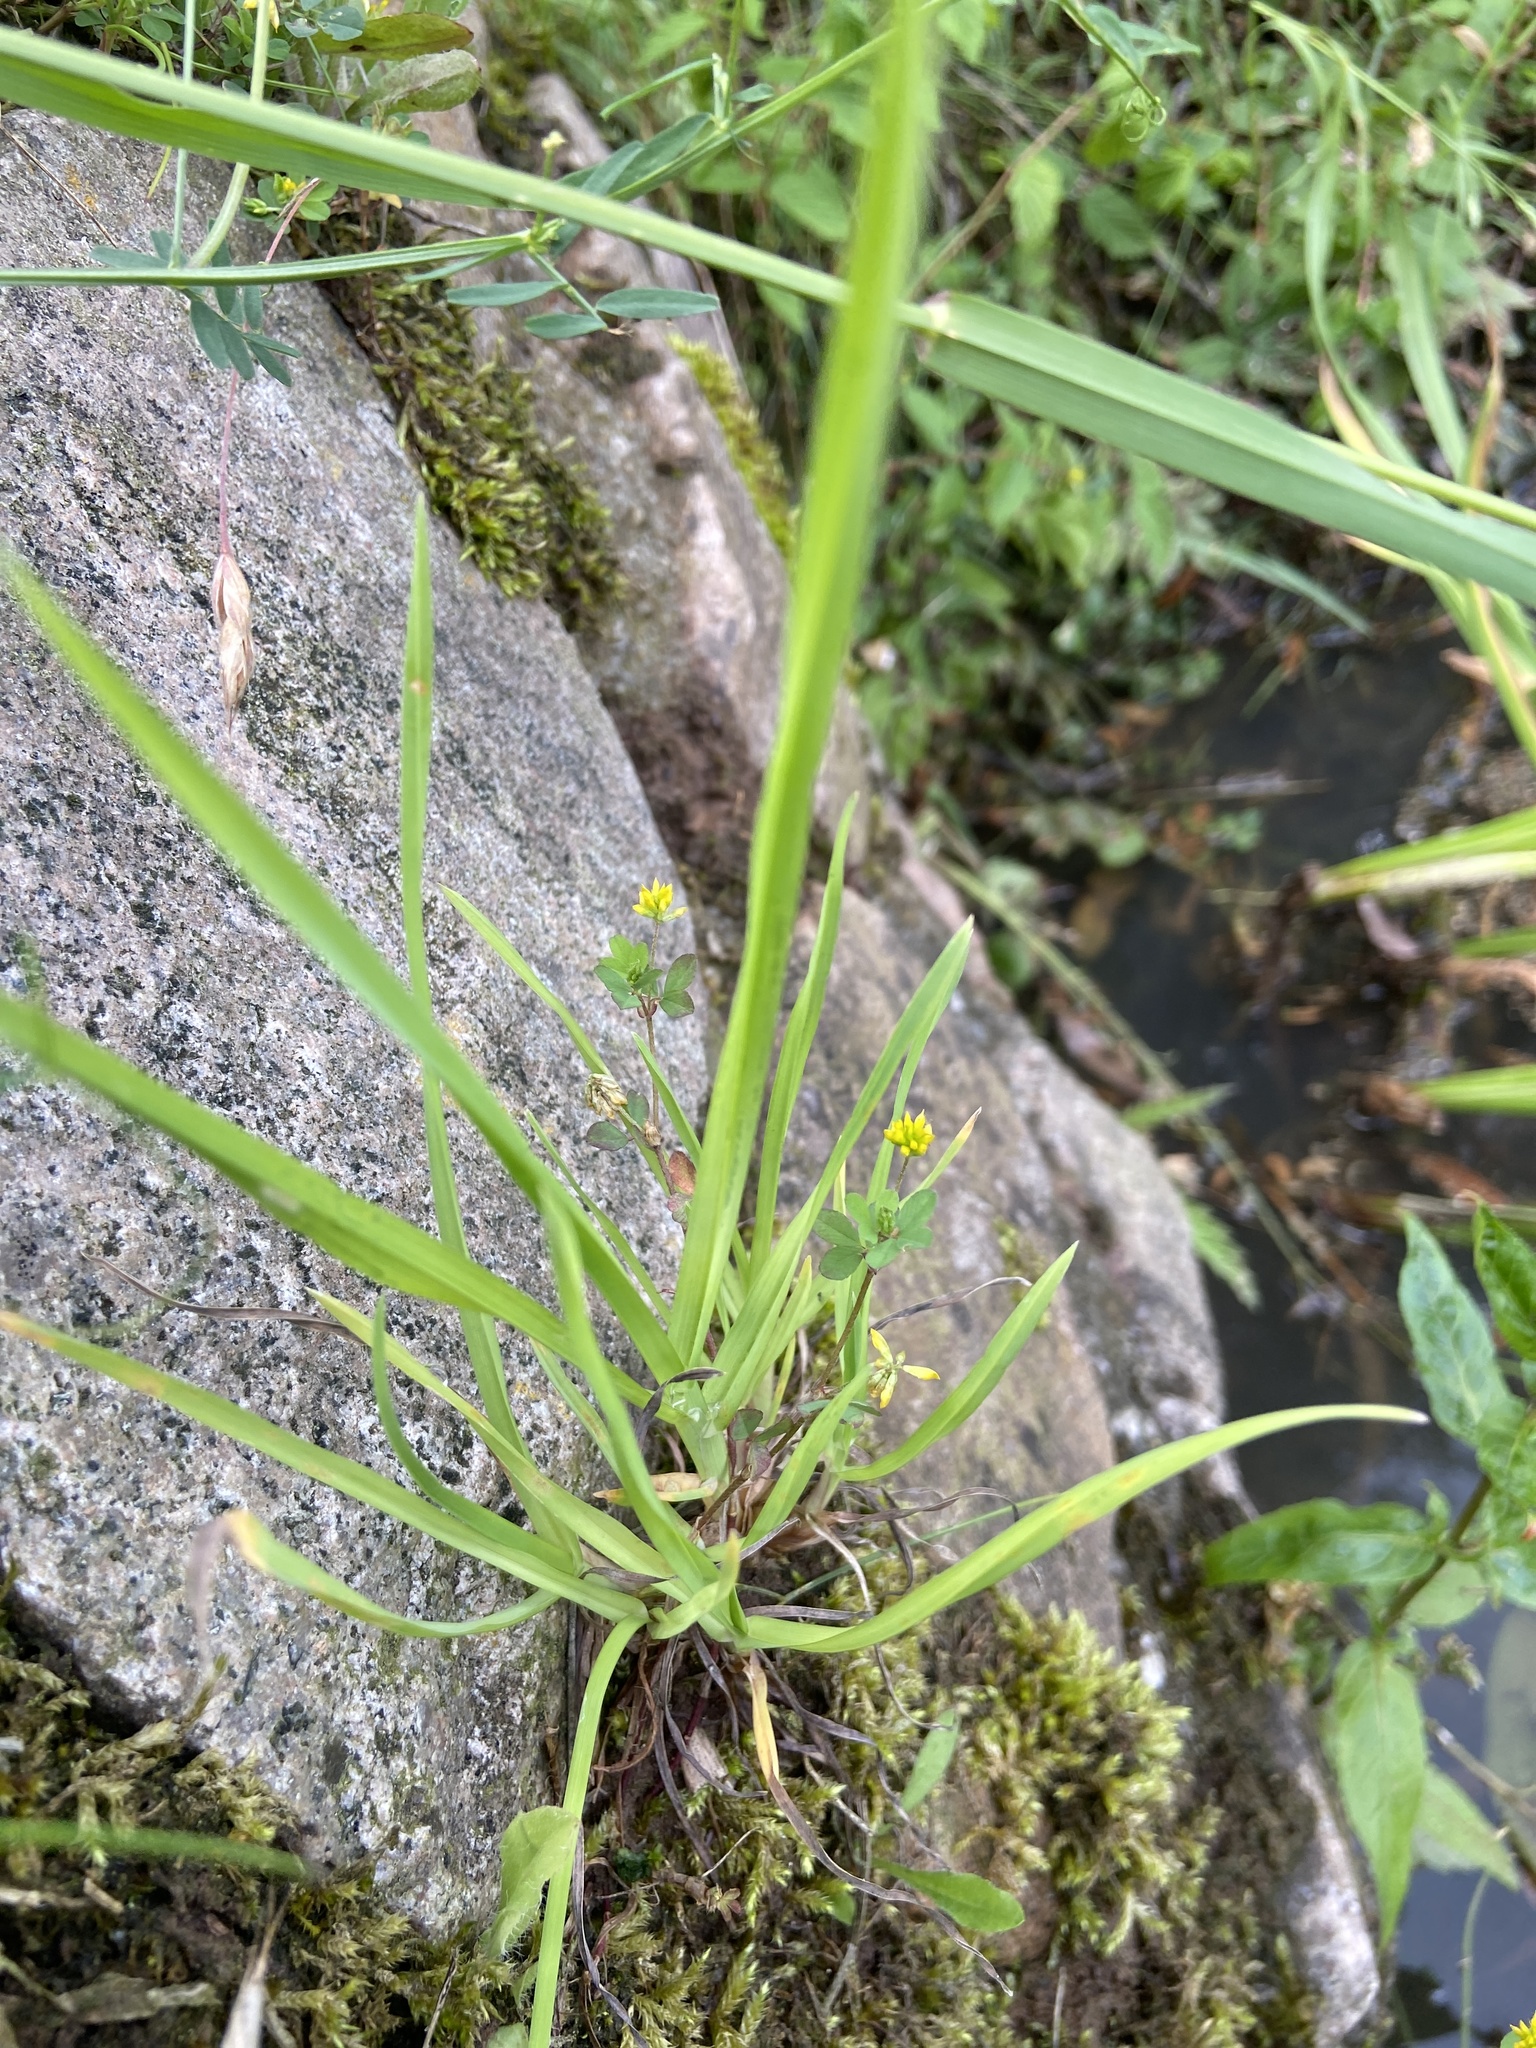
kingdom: Plantae
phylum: Tracheophyta
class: Magnoliopsida
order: Fabales
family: Fabaceae
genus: Trifolium
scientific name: Trifolium dubium
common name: Suckling clover
